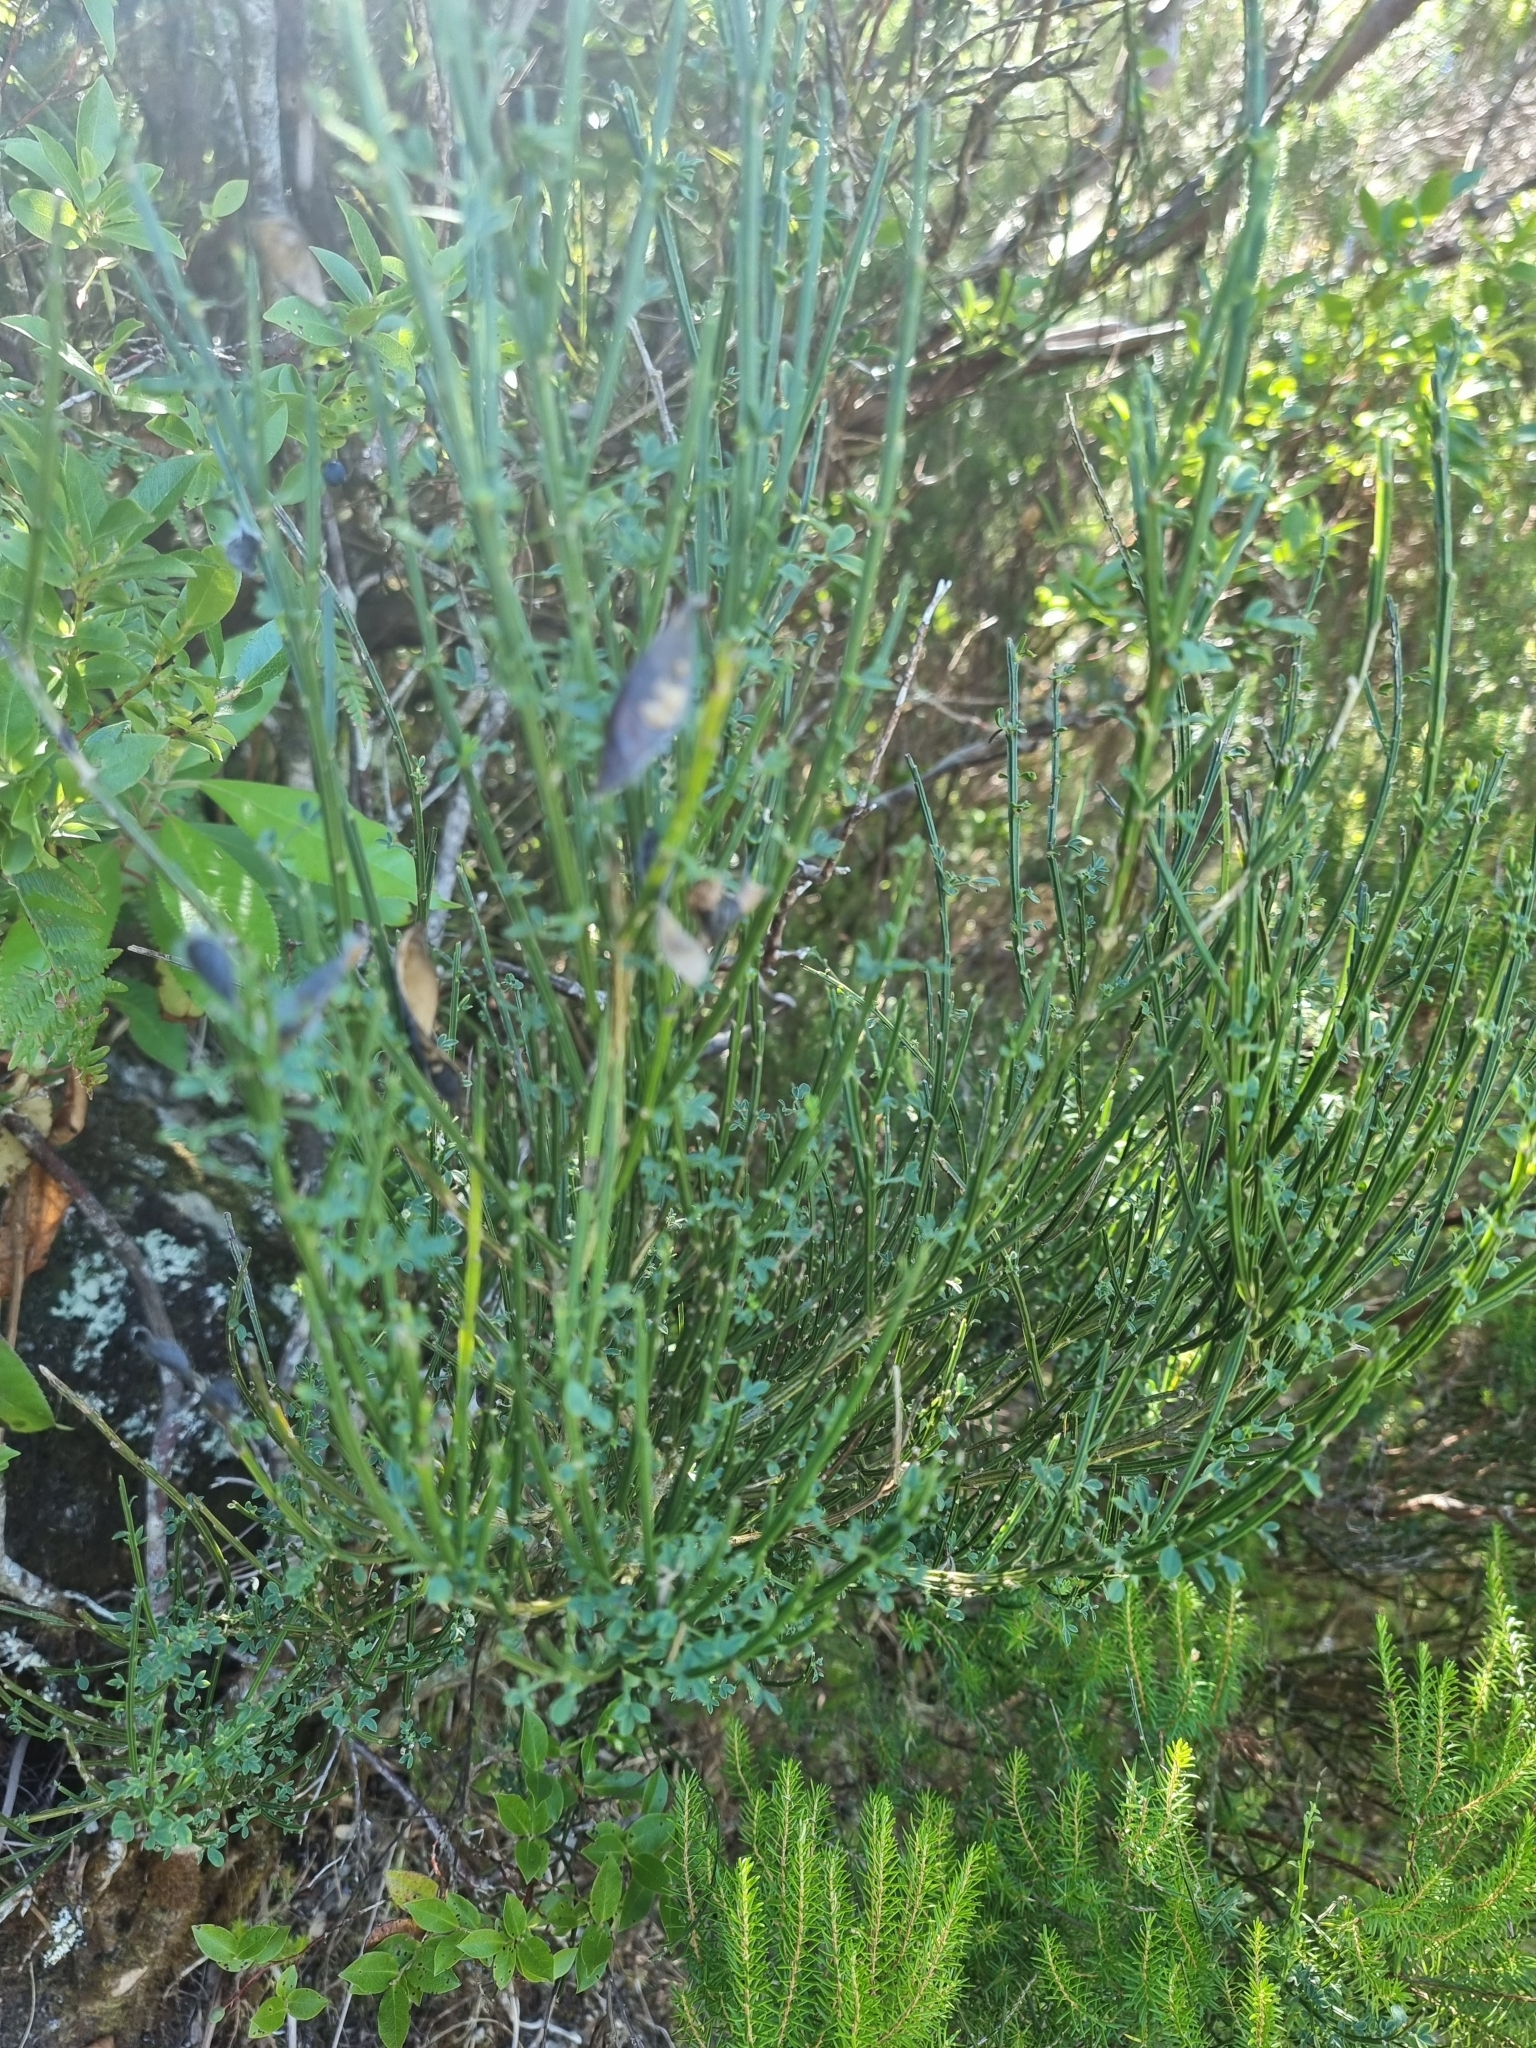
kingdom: Plantae
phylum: Tracheophyta
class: Magnoliopsida
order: Fabales
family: Fabaceae
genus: Cytisus
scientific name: Cytisus scoparius
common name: Scotch broom
